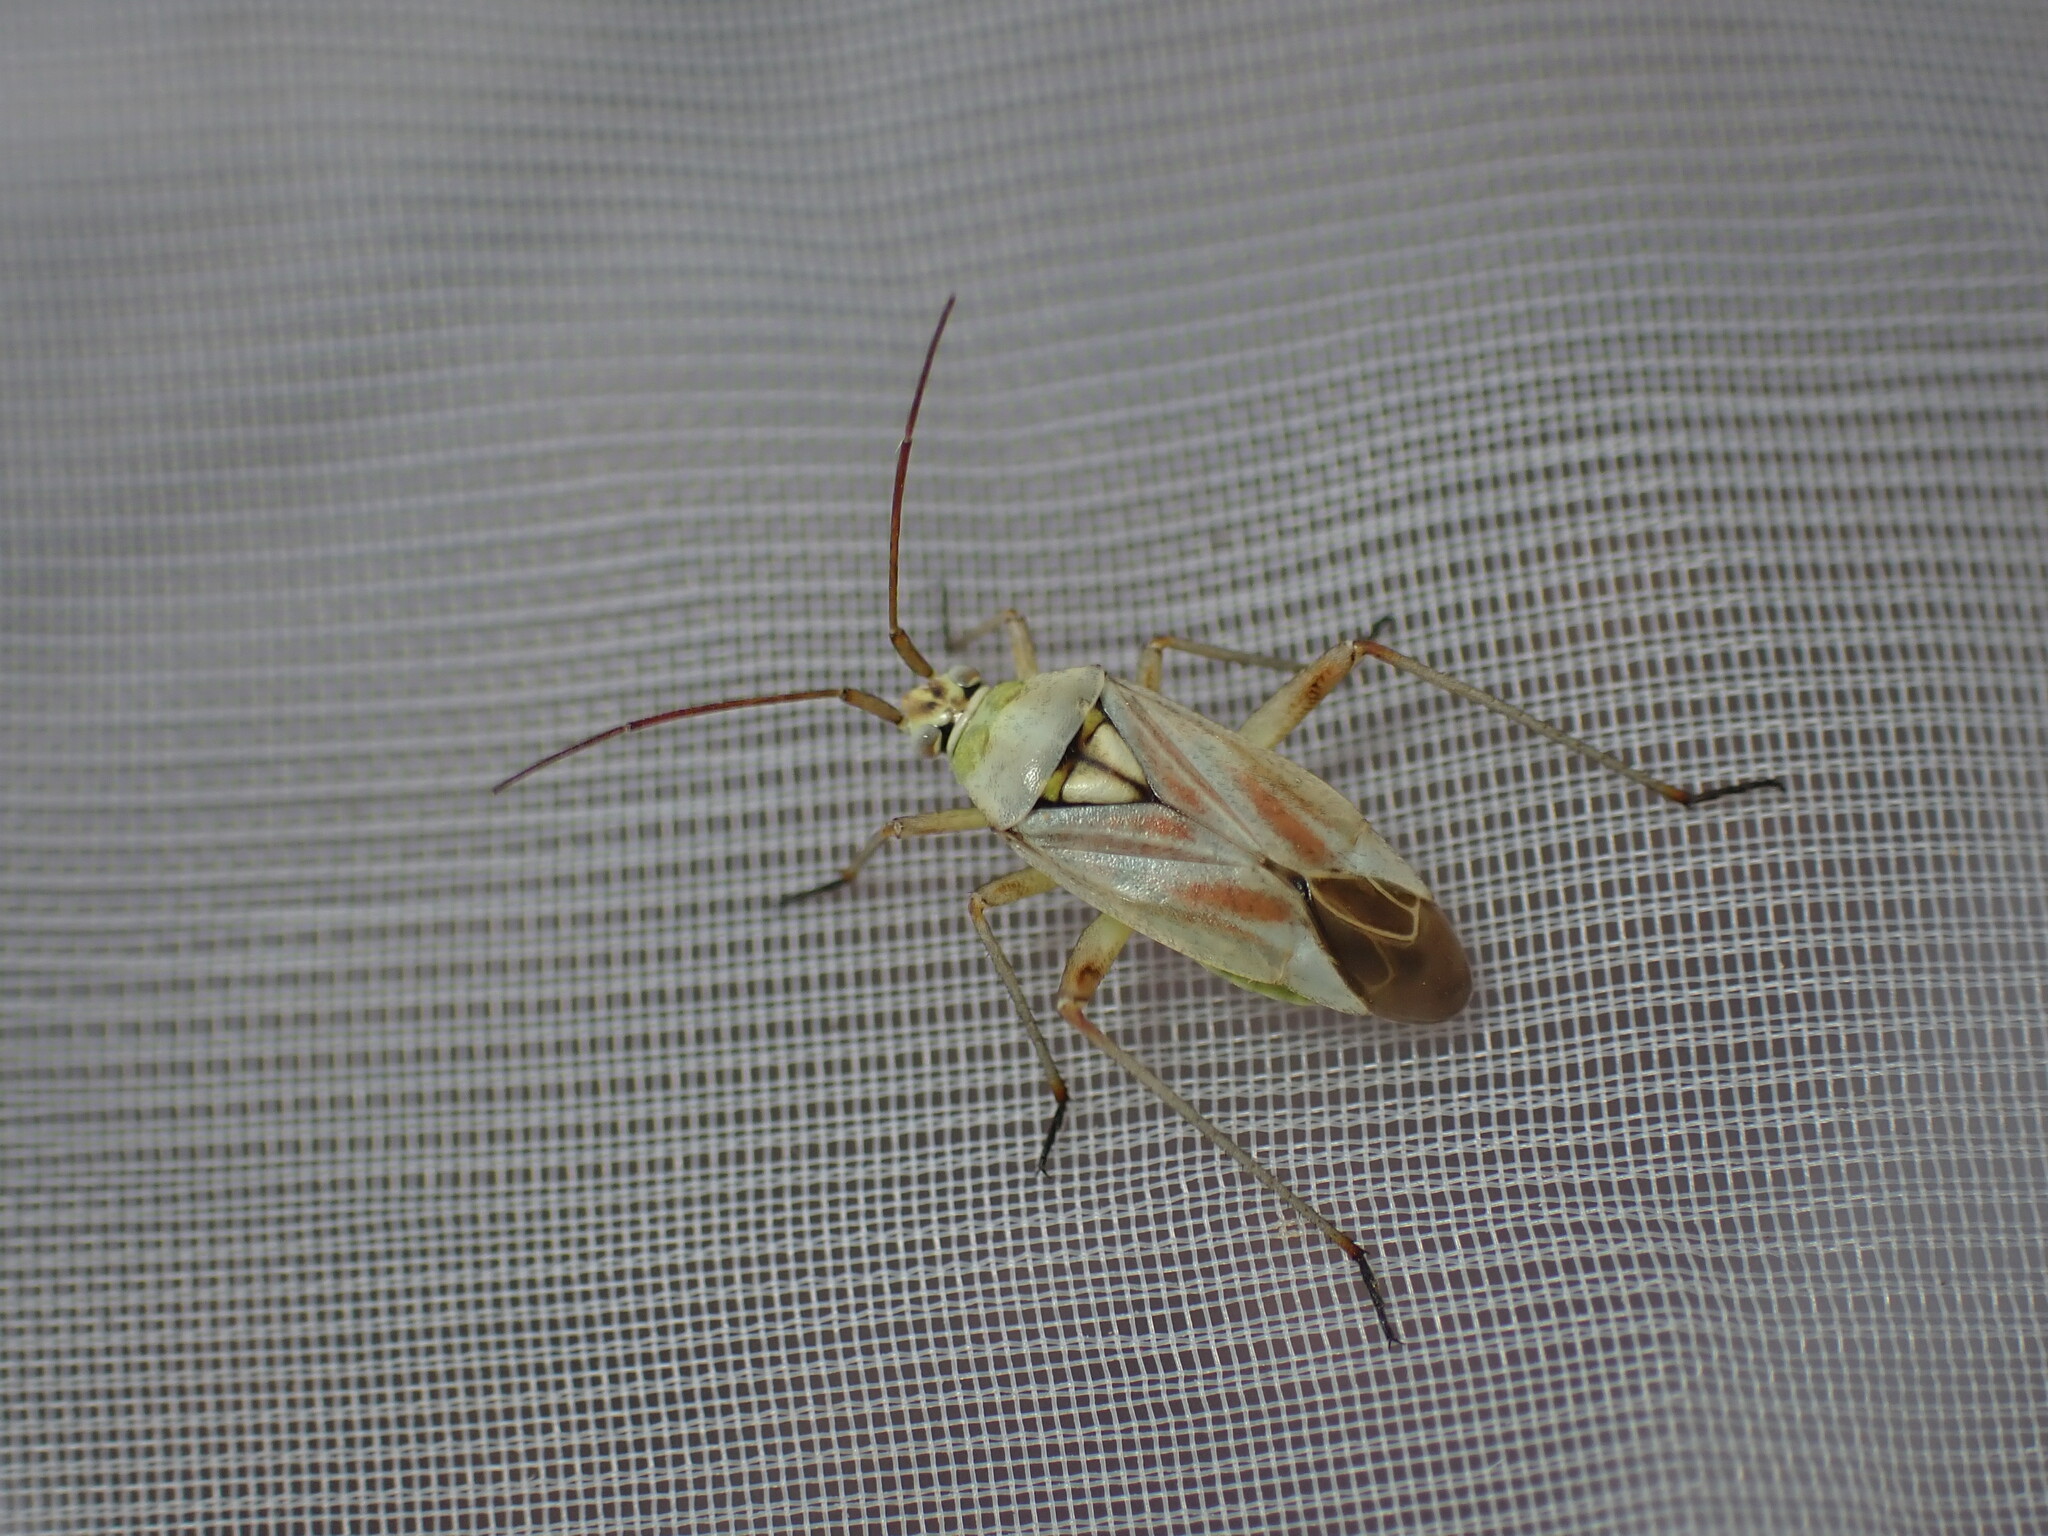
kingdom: Animalia
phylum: Arthropoda
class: Insecta
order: Hemiptera
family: Miridae
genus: Calocoris
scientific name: Calocoris roseomaculatus
